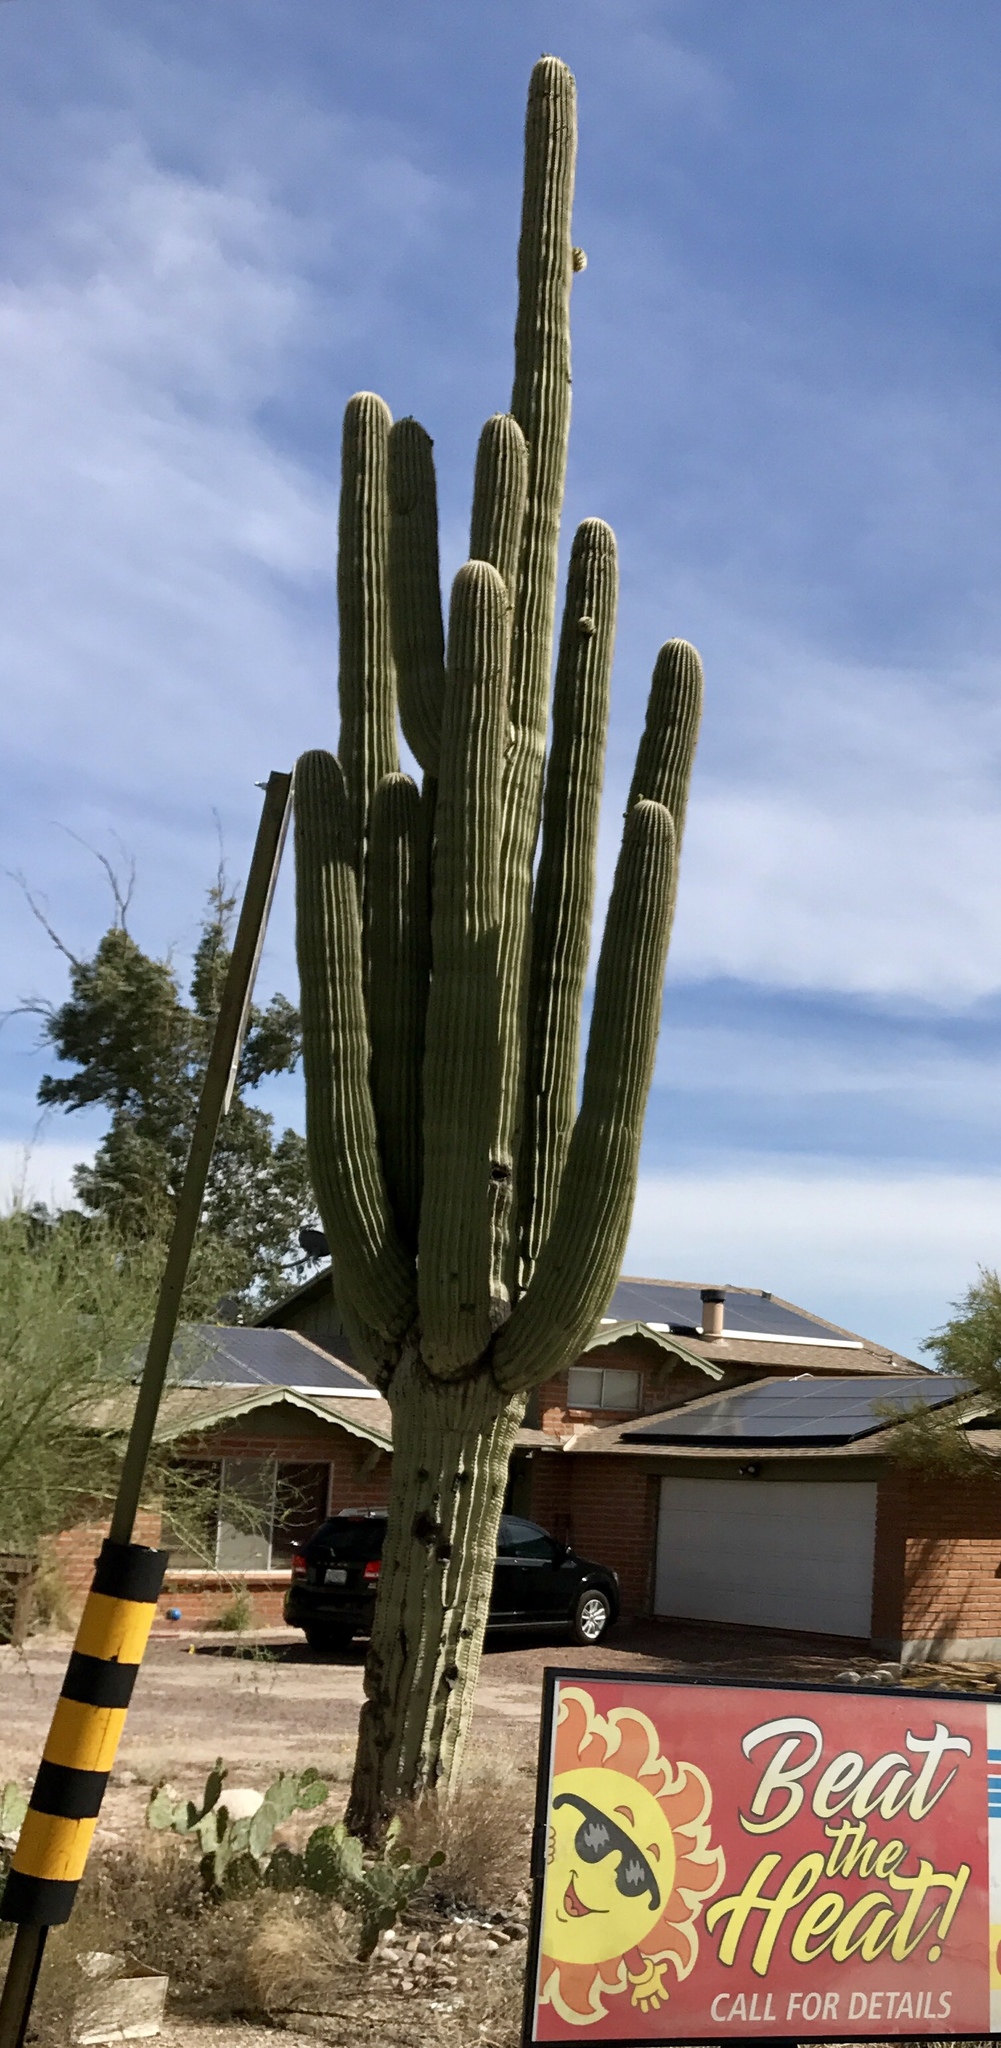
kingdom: Plantae
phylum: Tracheophyta
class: Magnoliopsida
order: Caryophyllales
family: Cactaceae
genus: Carnegiea
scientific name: Carnegiea gigantea
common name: Saguaro
